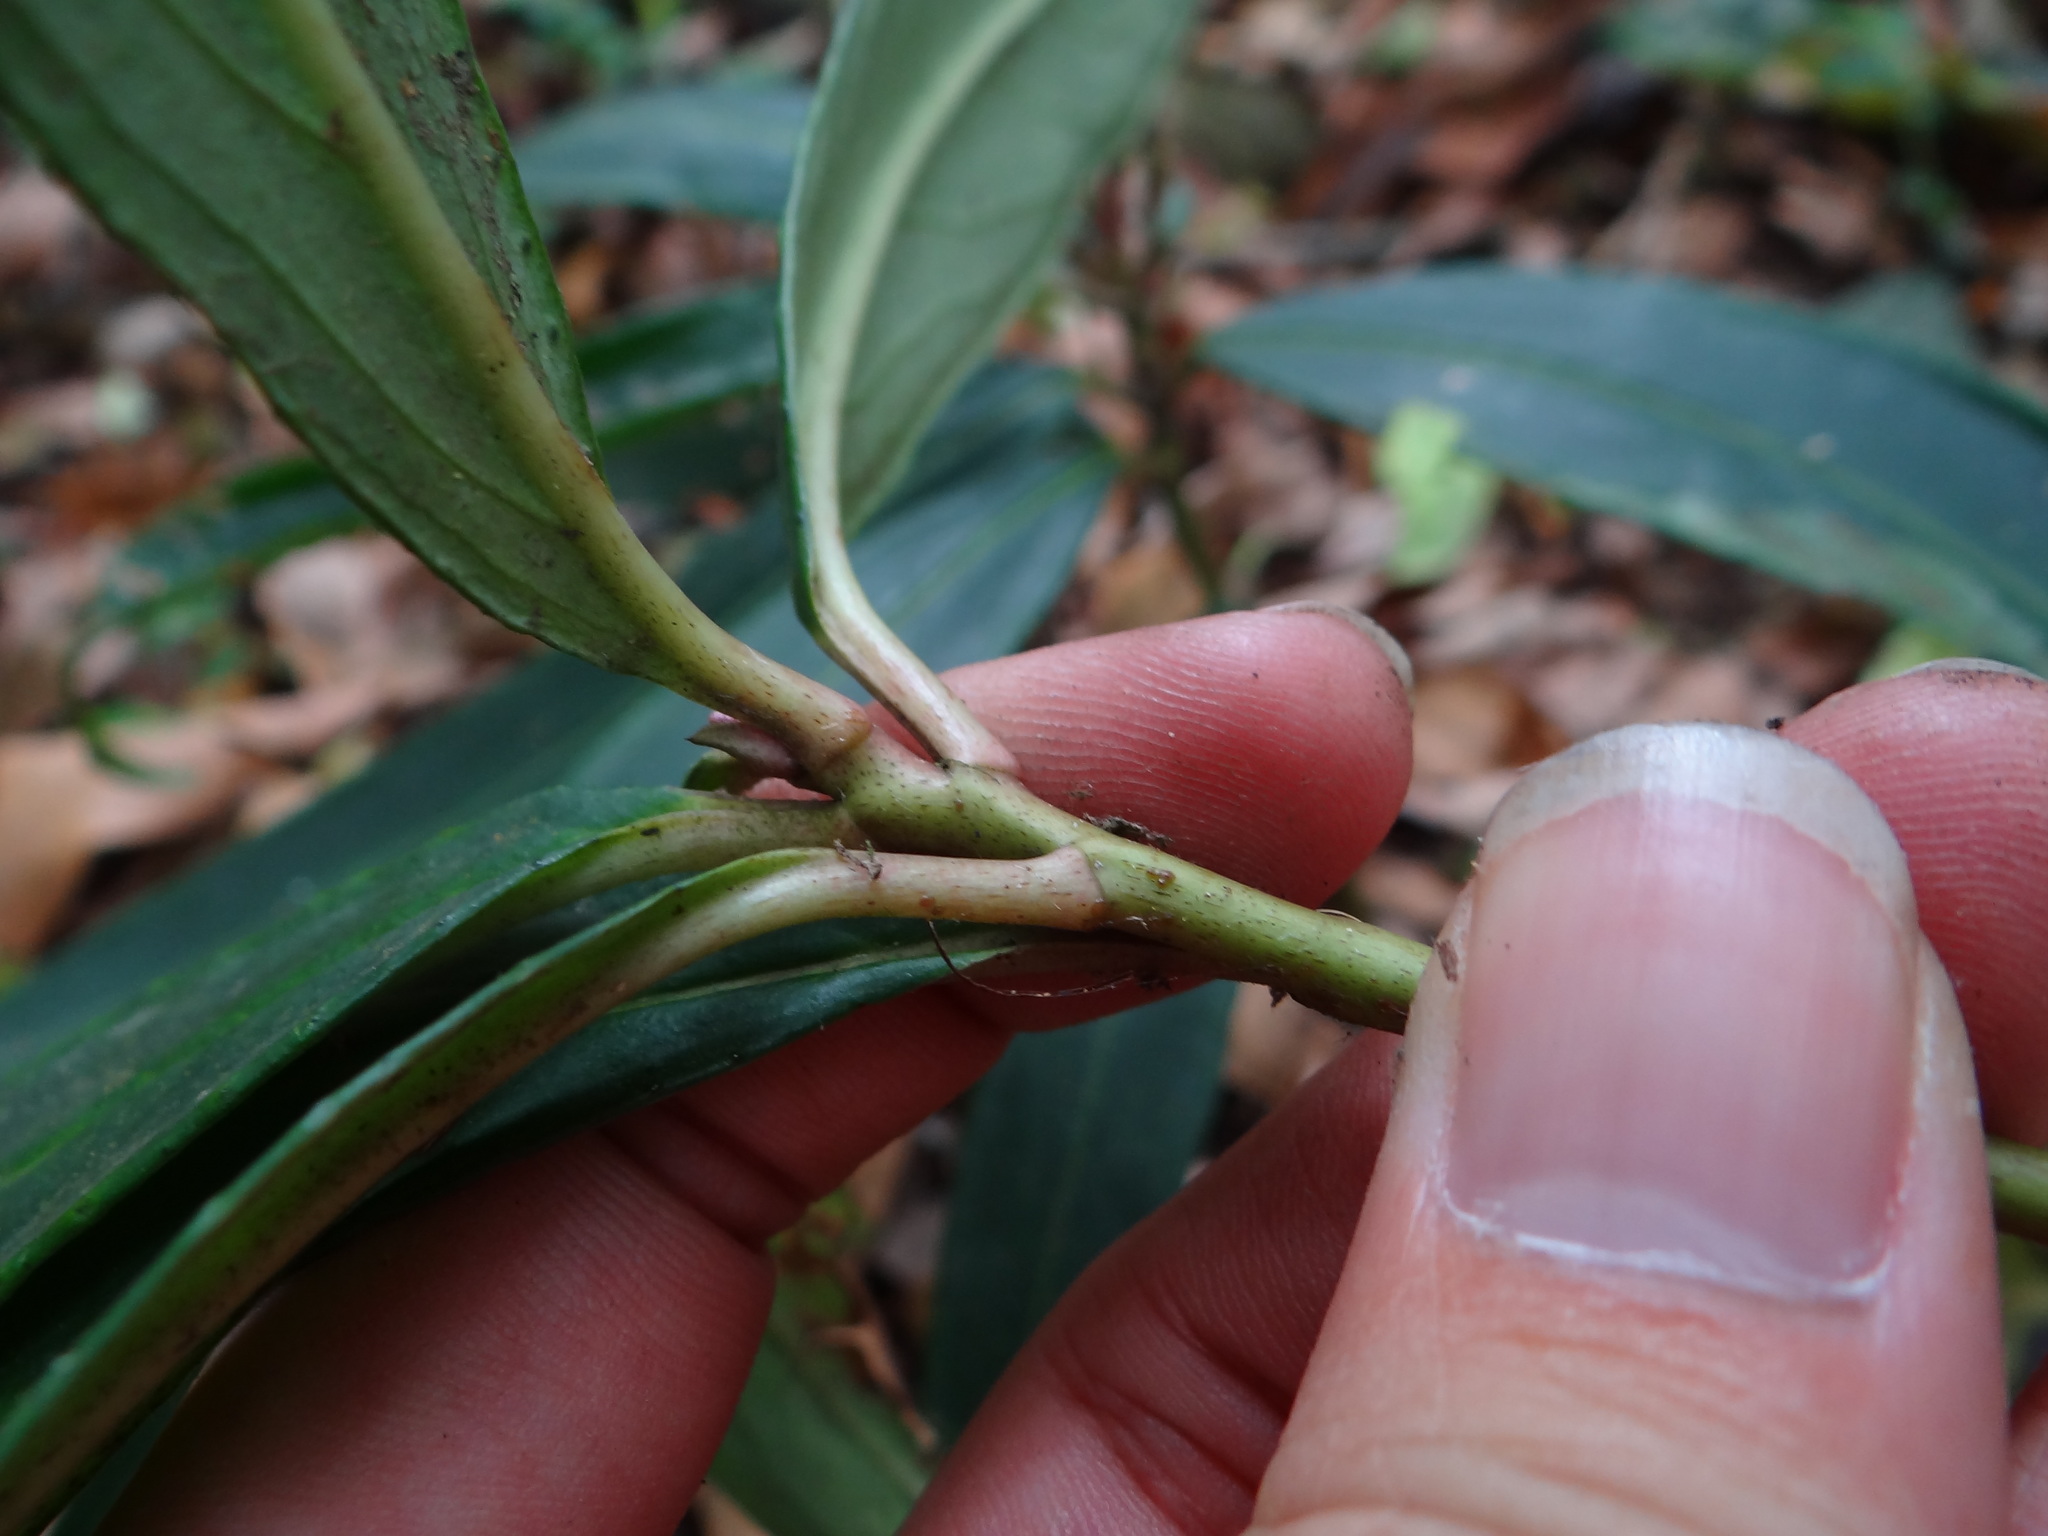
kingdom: Plantae
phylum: Tracheophyta
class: Magnoliopsida
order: Ericales
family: Primulaceae
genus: Ardisia
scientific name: Ardisia crispa
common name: Japanese-holly
